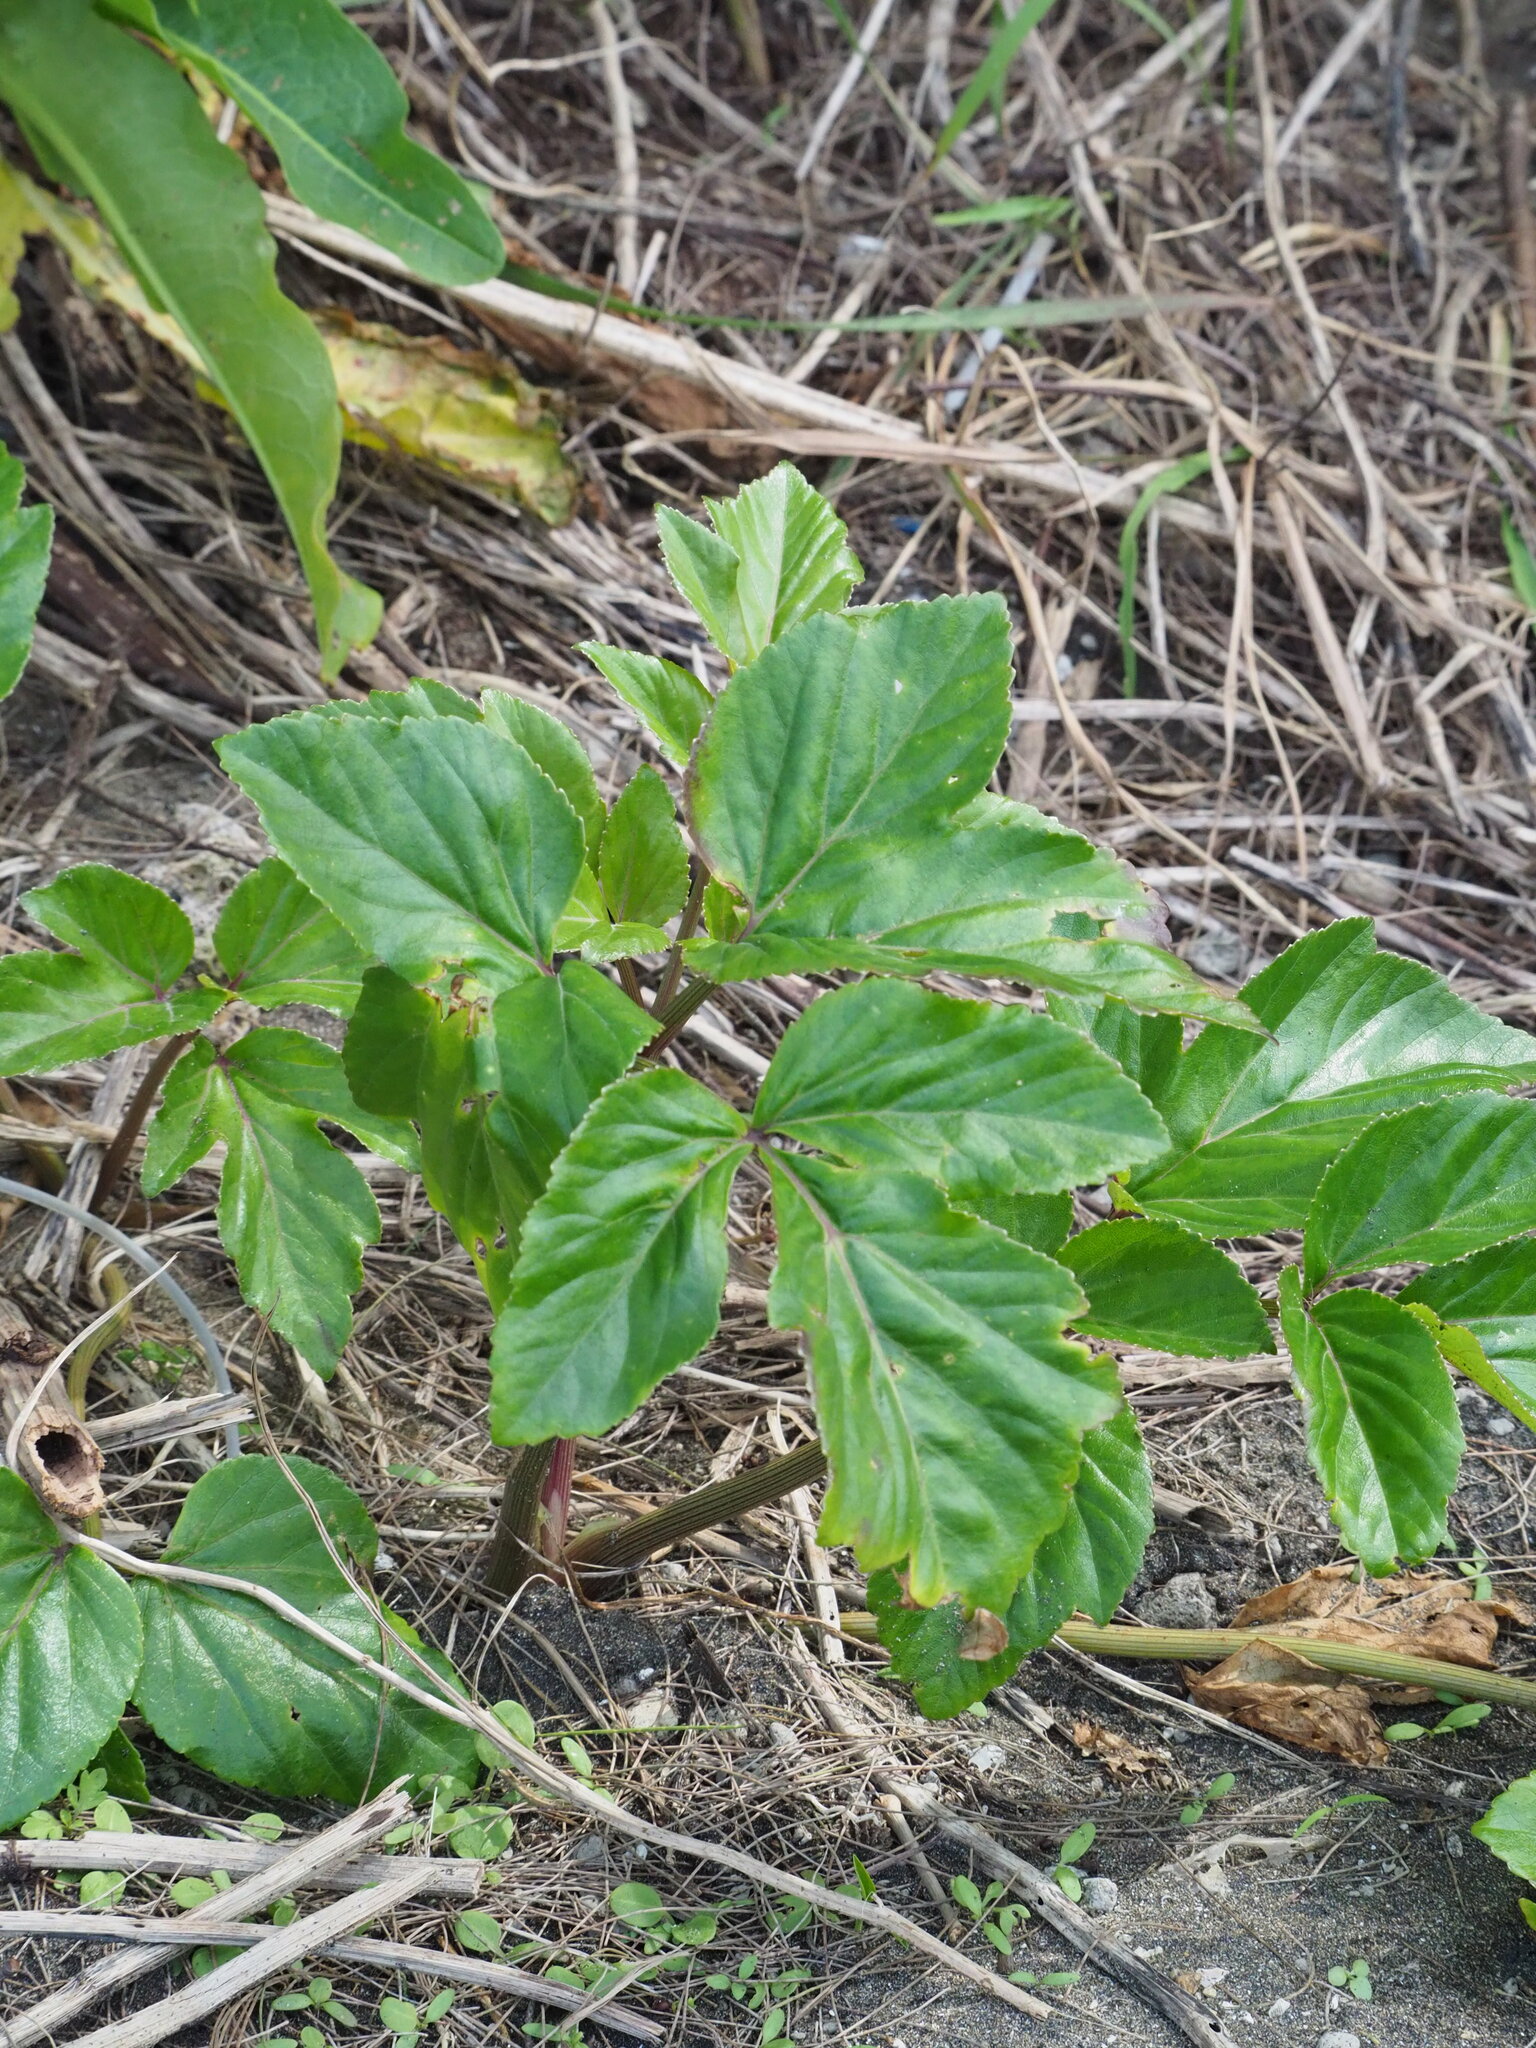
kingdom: Plantae
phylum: Tracheophyta
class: Magnoliopsida
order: Apiales
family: Apiaceae
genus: Angelica
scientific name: Angelica hirsutiflora
